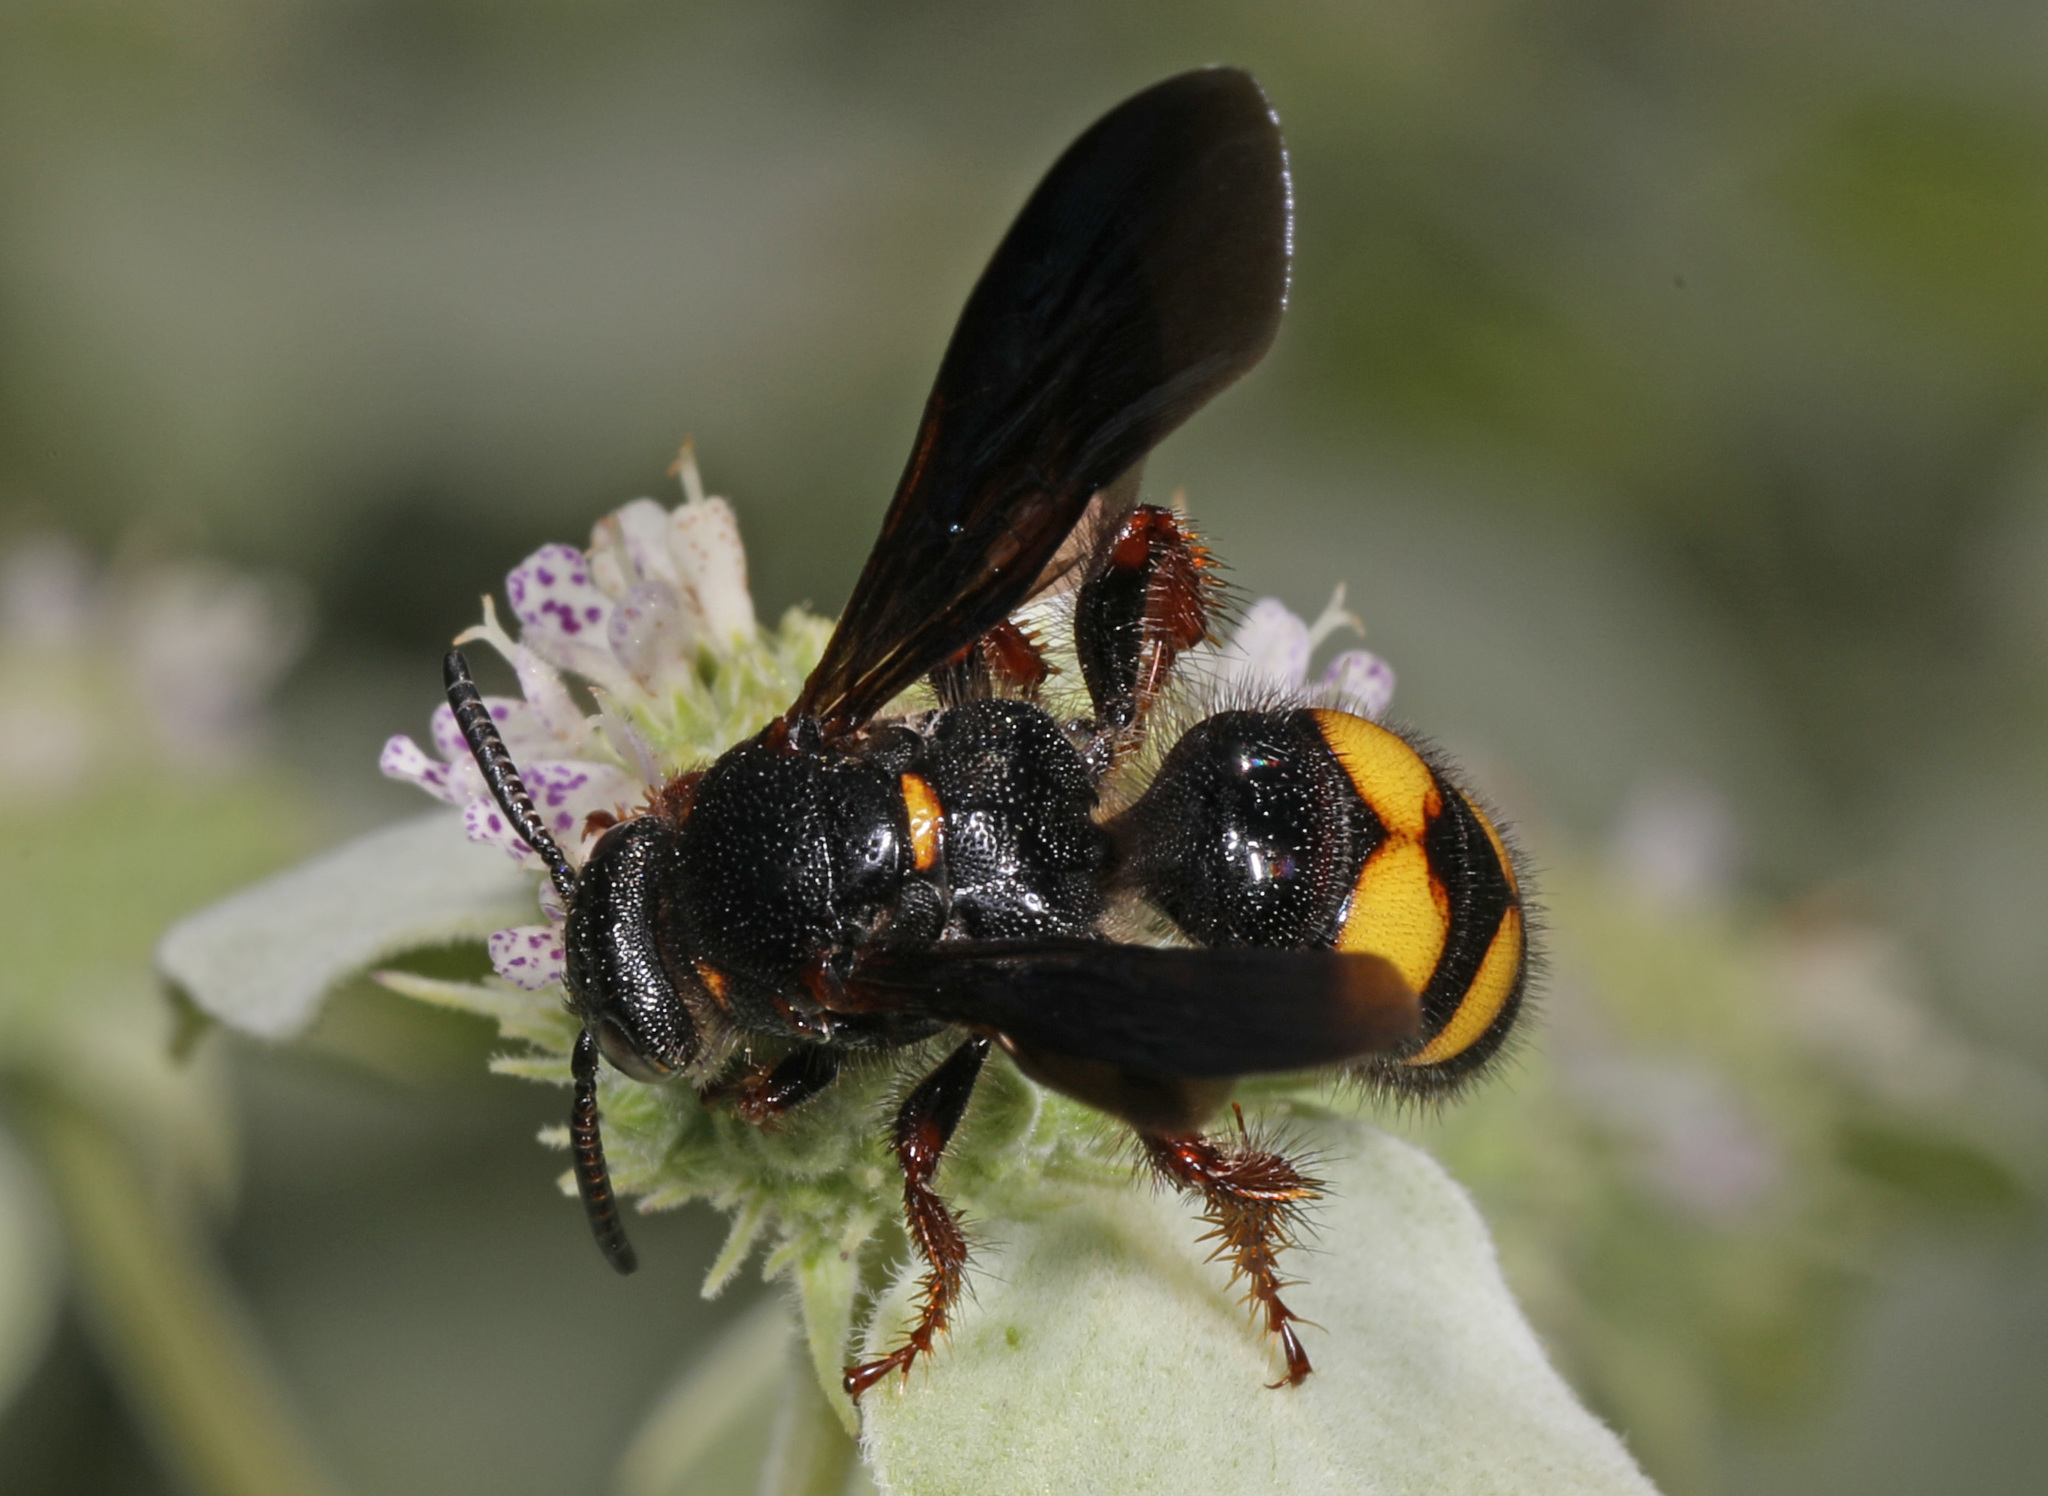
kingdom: Animalia
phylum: Arthropoda
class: Insecta
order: Hymenoptera
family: Scoliidae
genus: Scolia
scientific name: Scolia nobilitata
